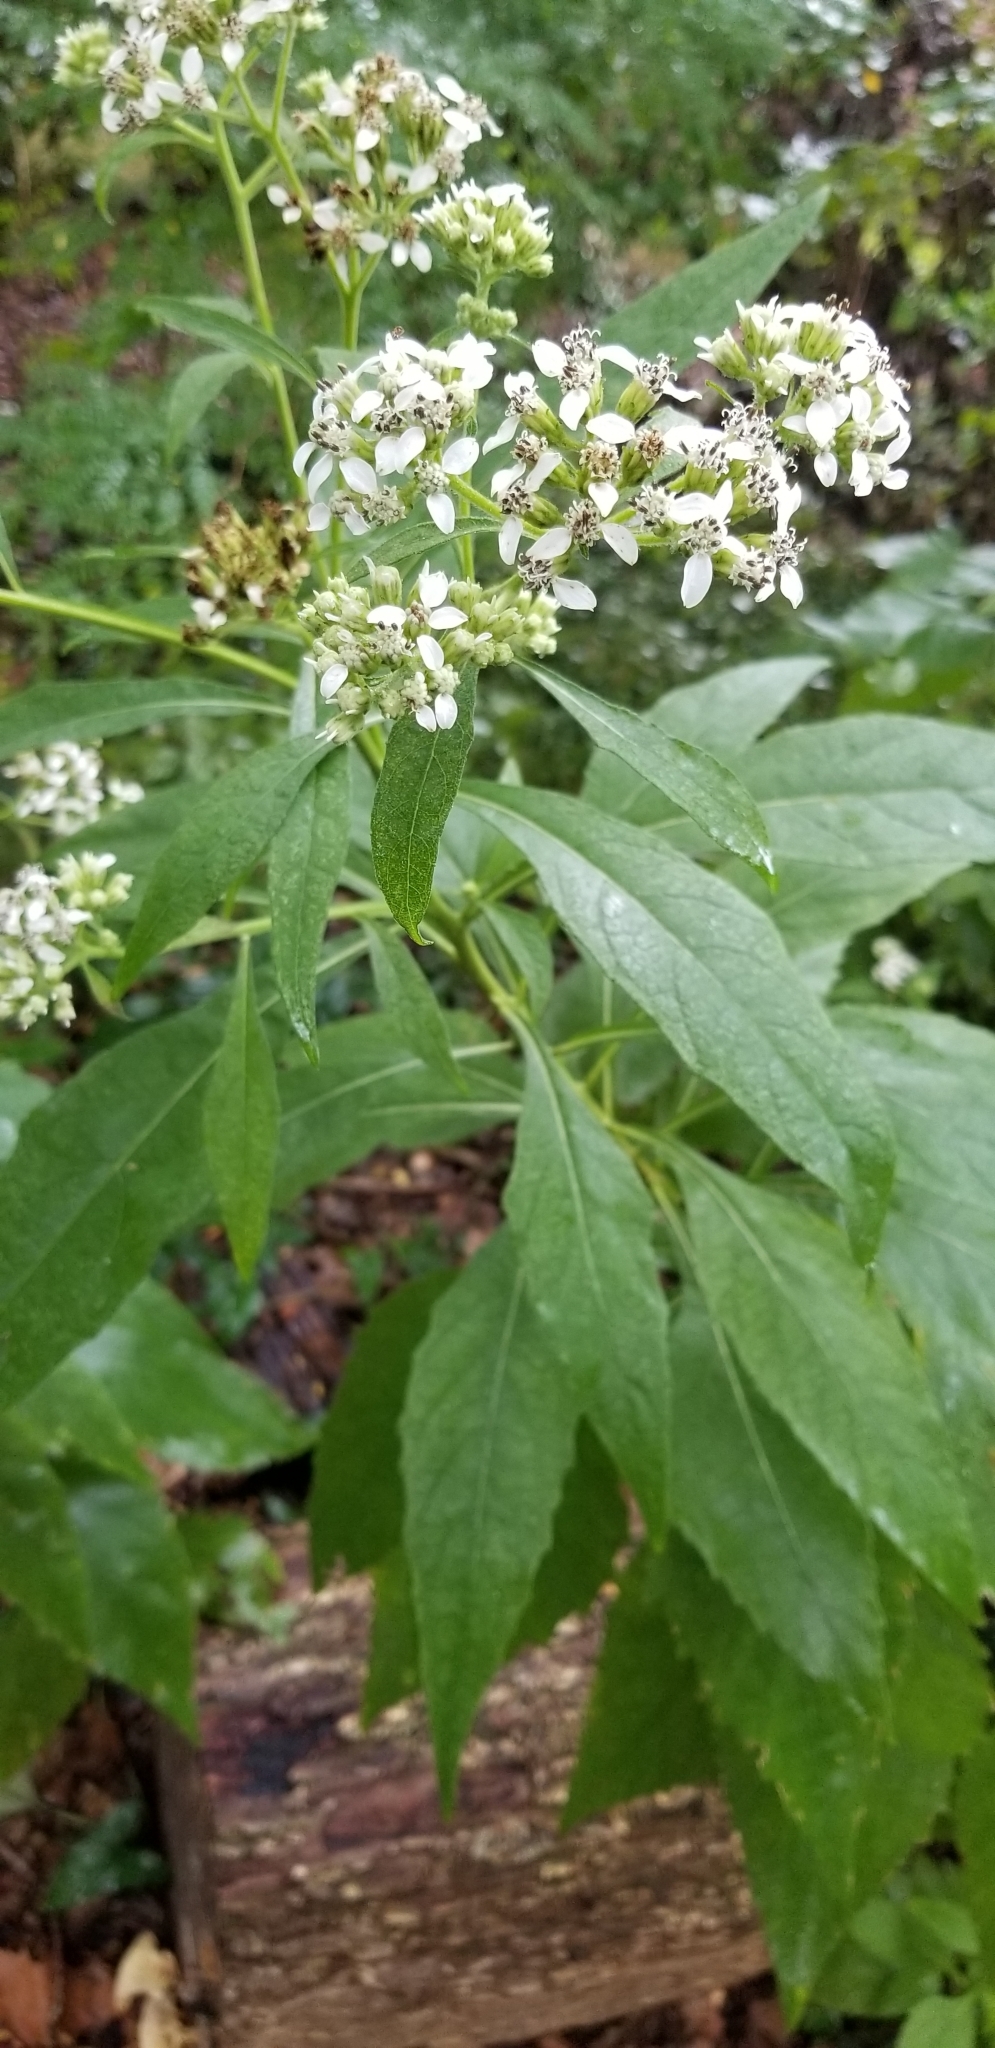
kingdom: Plantae
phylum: Tracheophyta
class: Magnoliopsida
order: Asterales
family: Asteraceae
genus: Verbesina
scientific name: Verbesina virginica
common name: Frostweed
